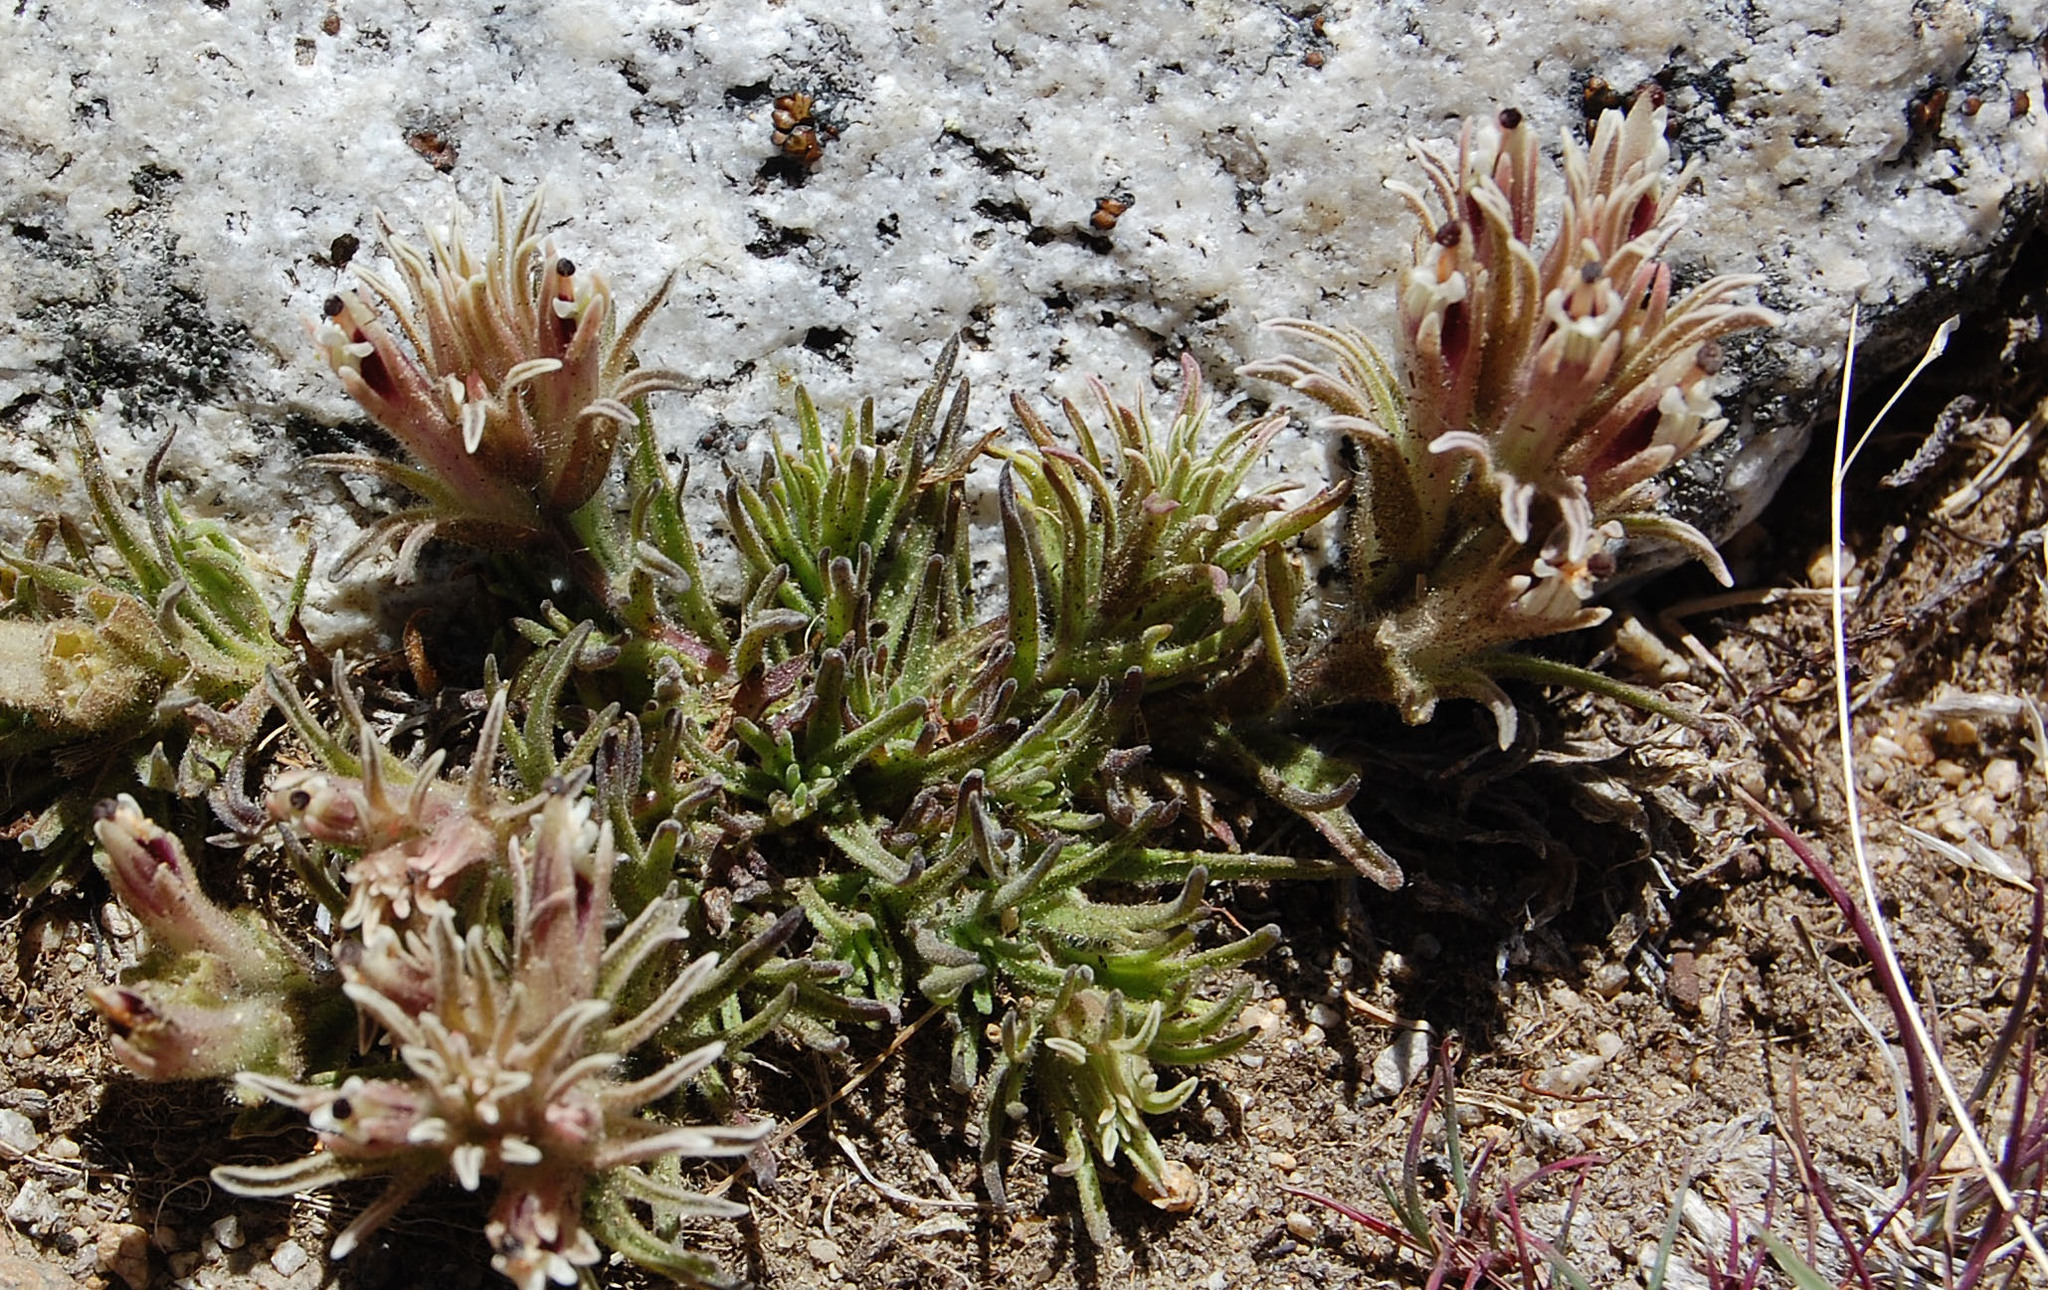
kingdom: Plantae
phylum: Tracheophyta
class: Magnoliopsida
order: Lamiales
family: Orobanchaceae
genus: Castilleja
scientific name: Castilleja nana
